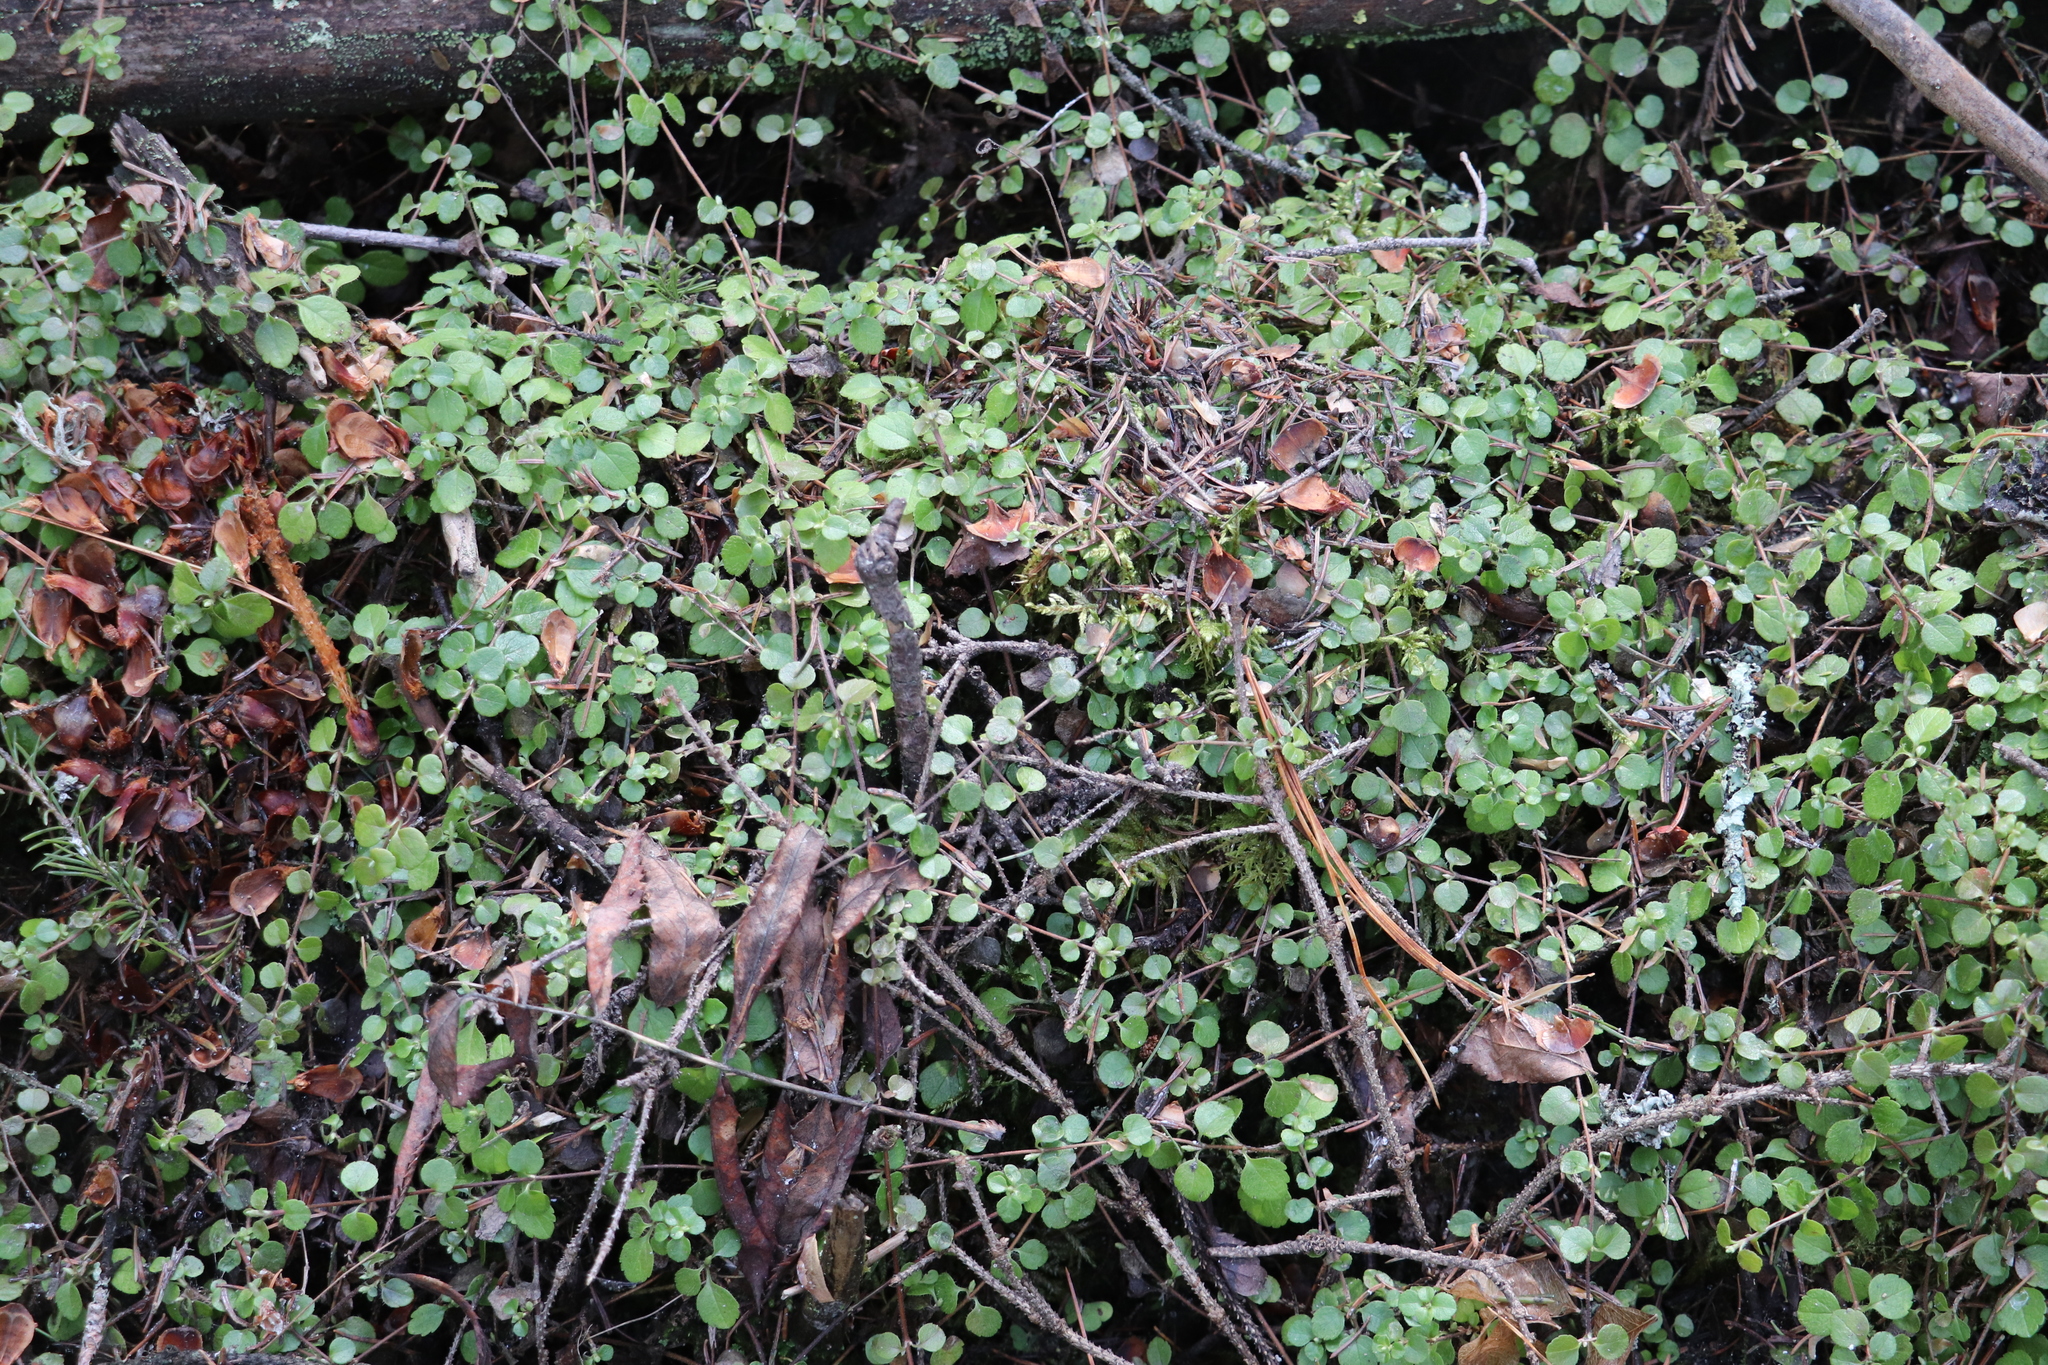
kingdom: Plantae
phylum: Tracheophyta
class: Magnoliopsida
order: Dipsacales
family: Caprifoliaceae
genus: Linnaea
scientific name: Linnaea borealis
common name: Twinflower
